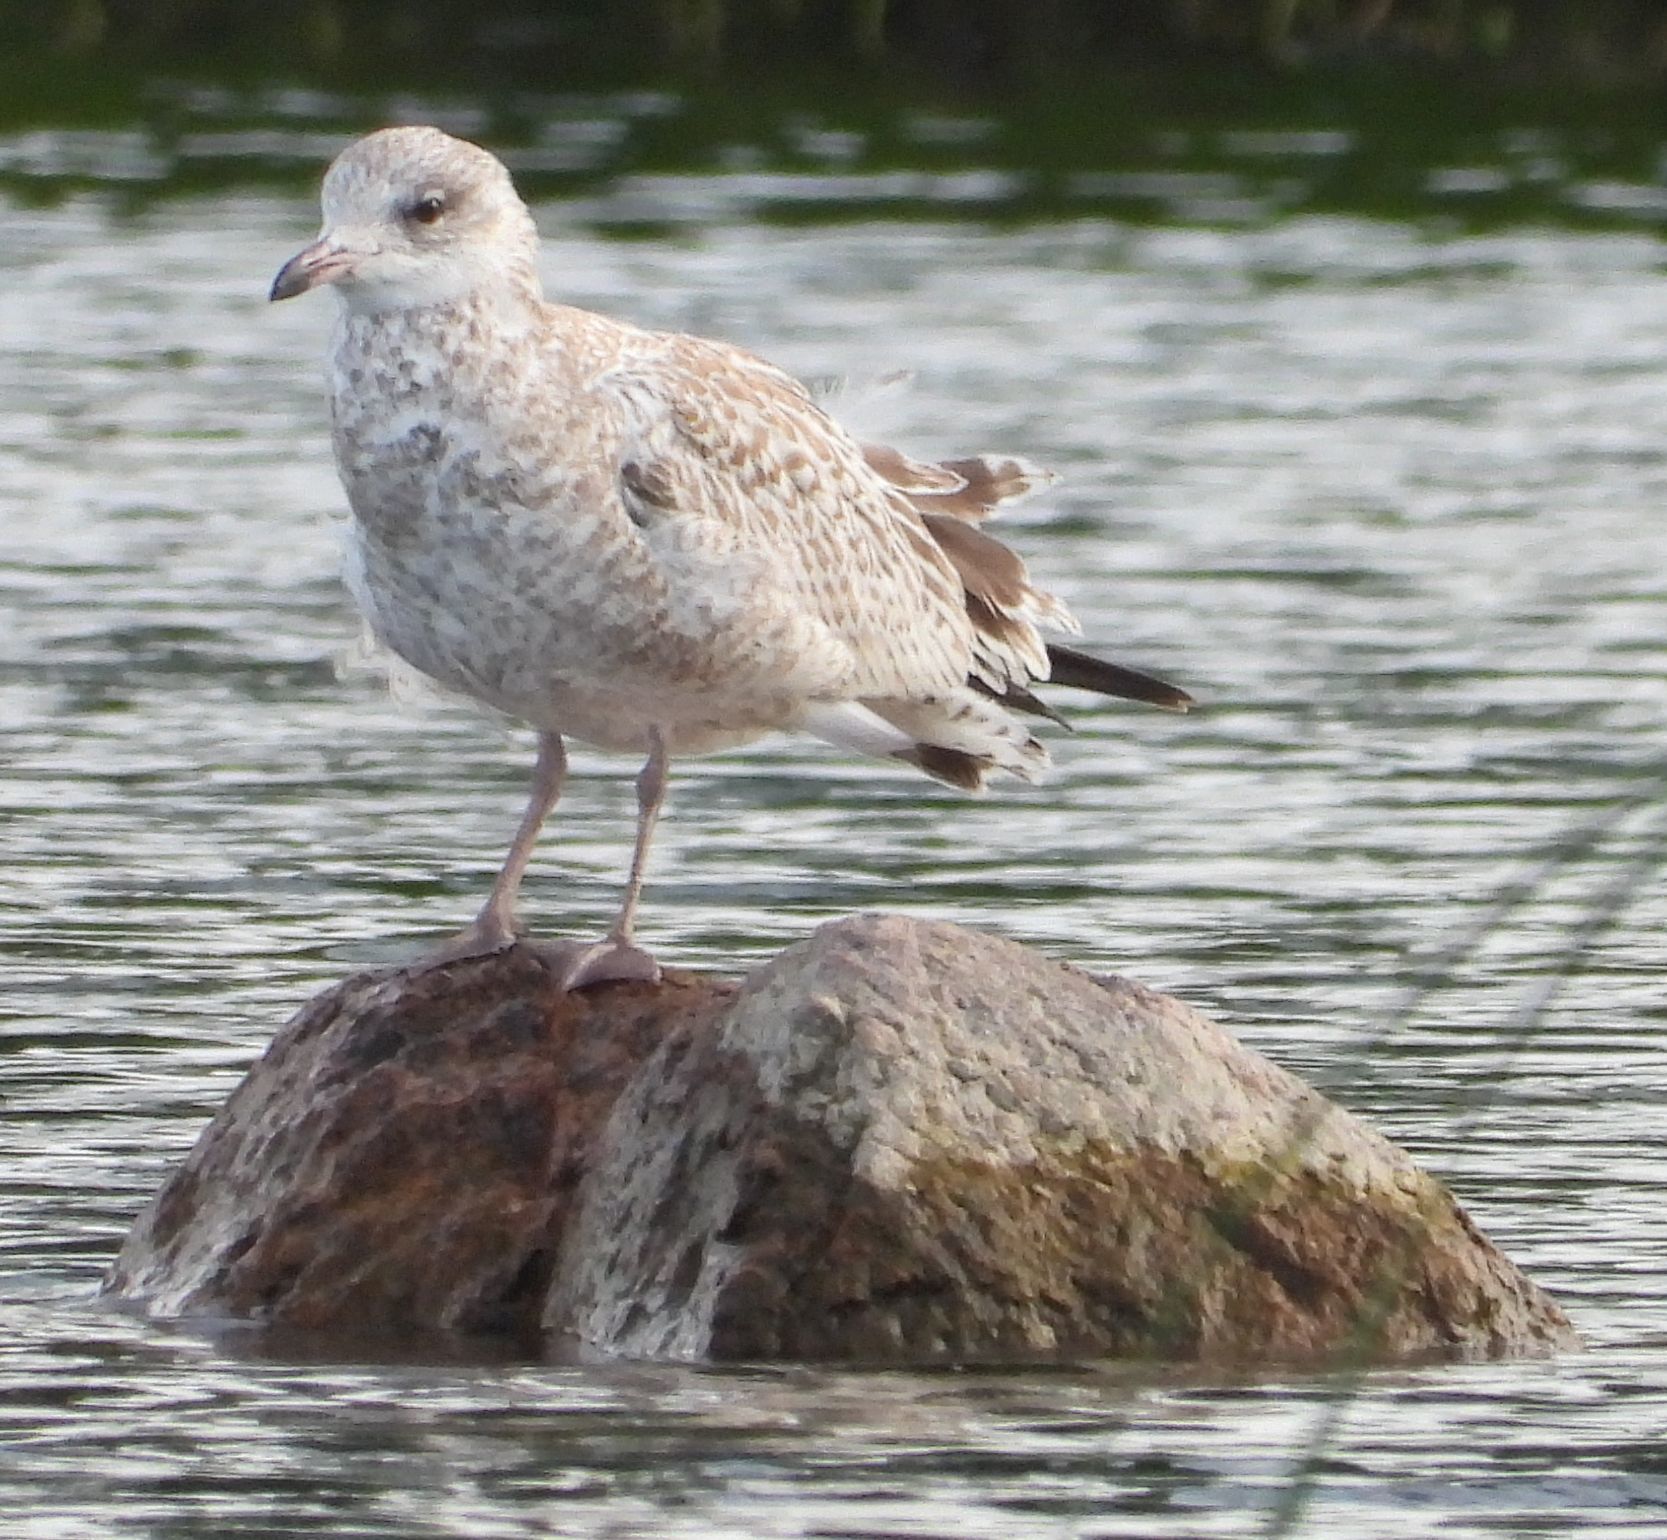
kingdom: Animalia
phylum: Chordata
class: Aves
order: Charadriiformes
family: Laridae
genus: Larus
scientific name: Larus delawarensis
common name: Ring-billed gull
